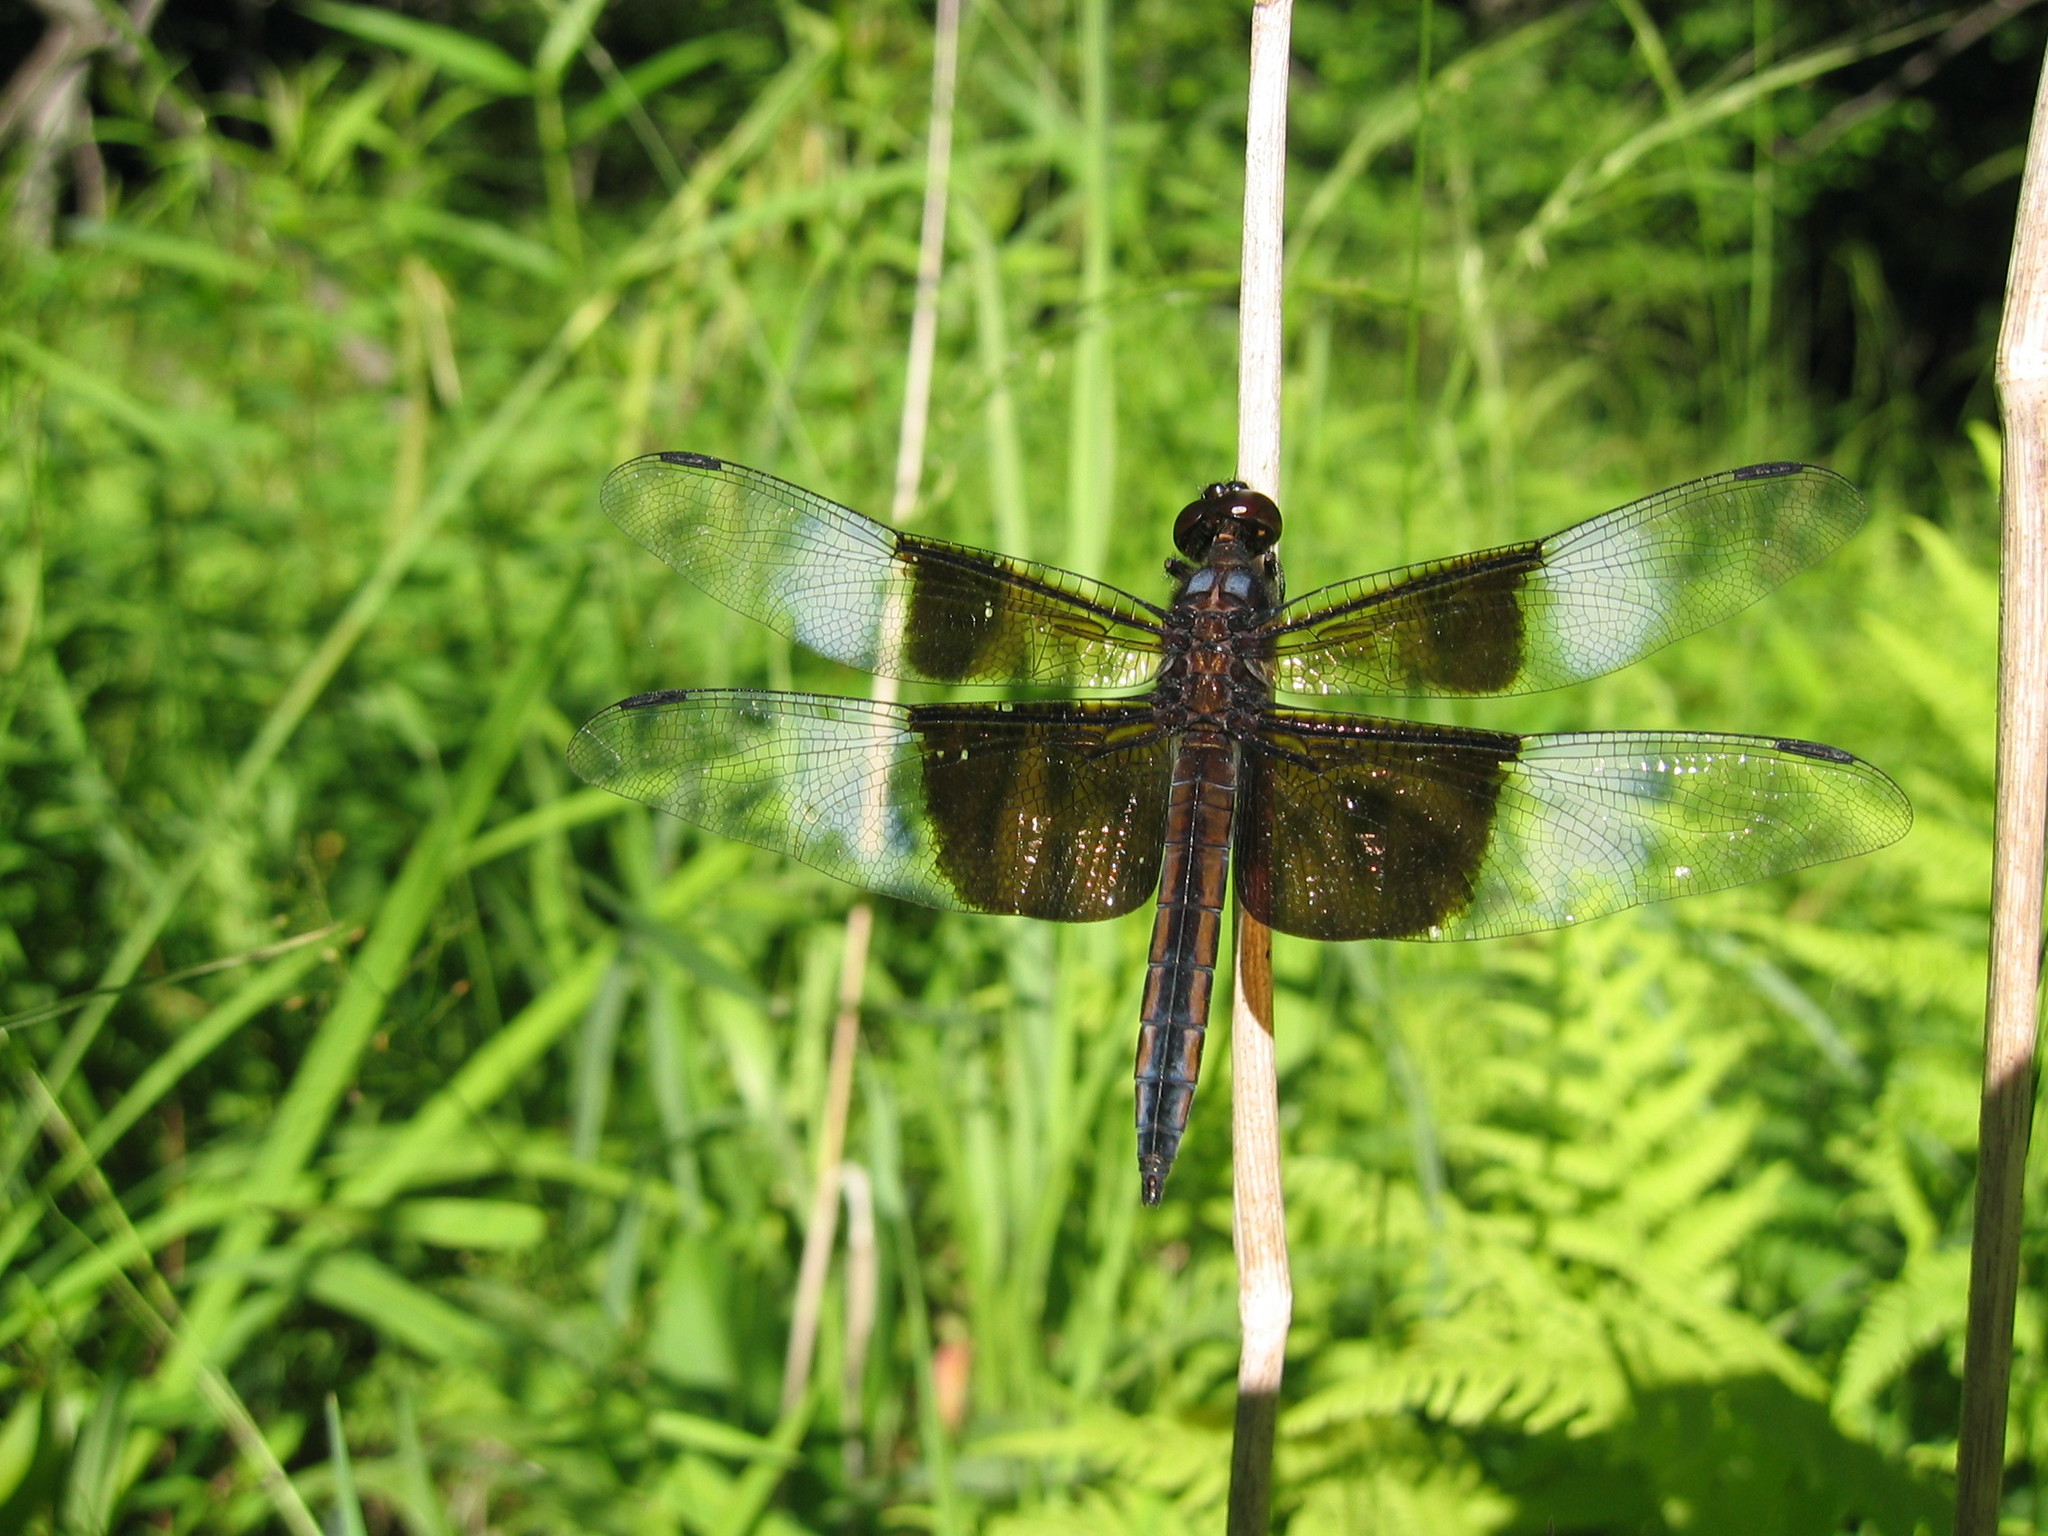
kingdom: Animalia
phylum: Arthropoda
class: Insecta
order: Odonata
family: Libellulidae
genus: Libellula
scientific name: Libellula luctuosa
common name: Widow skimmer
